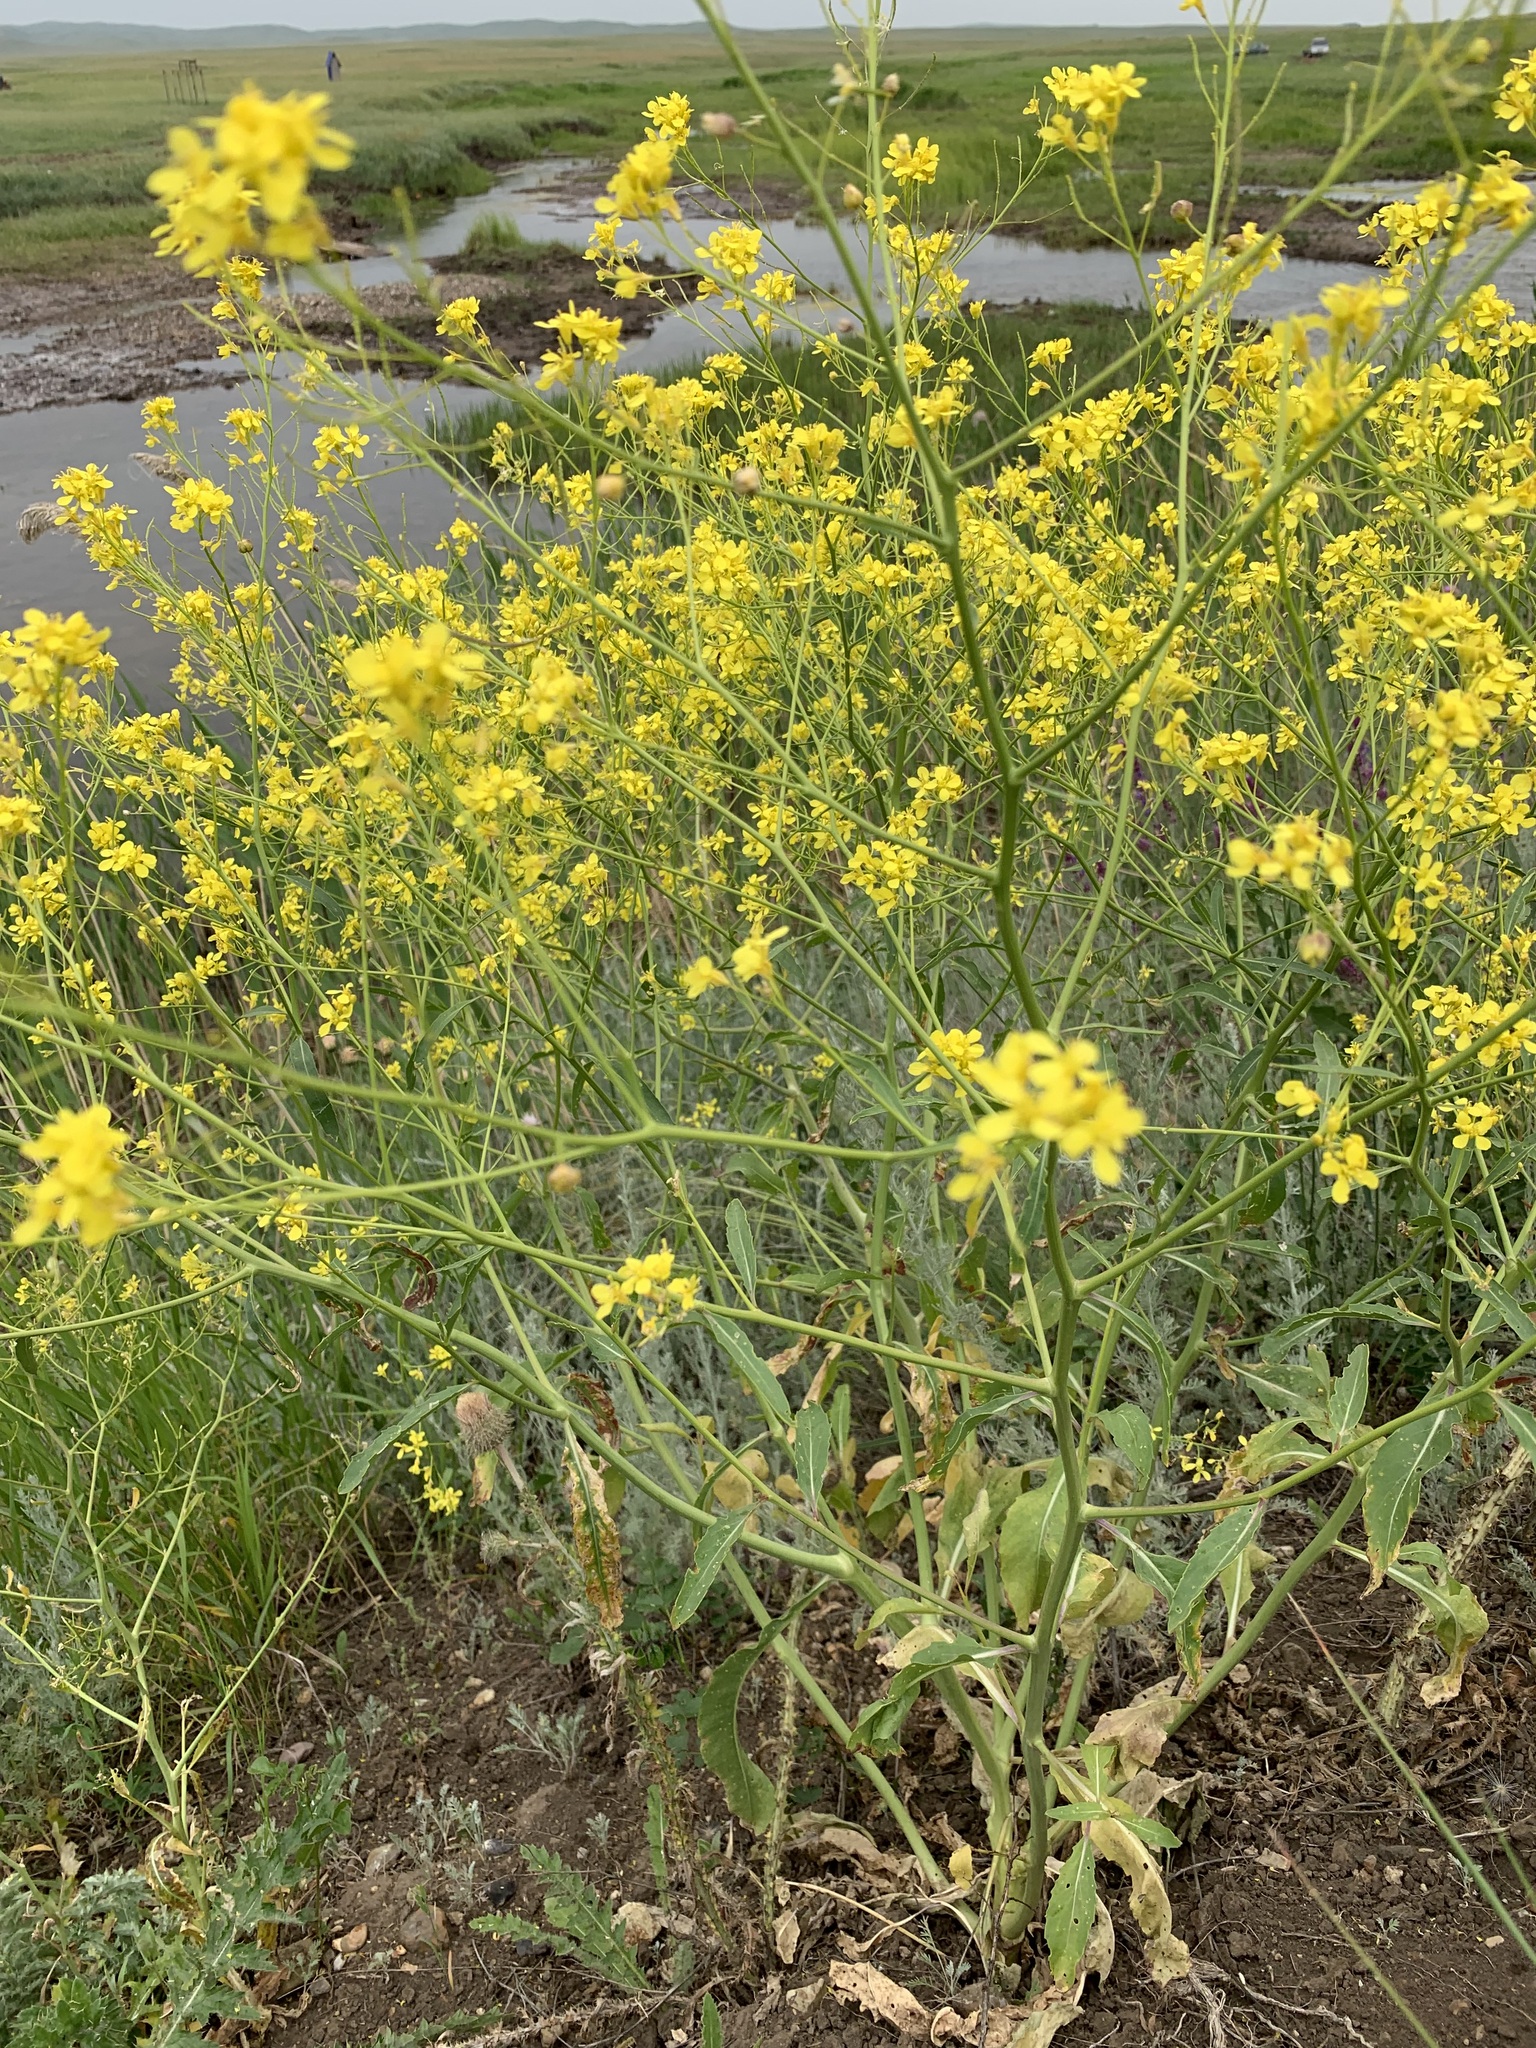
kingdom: Plantae
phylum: Tracheophyta
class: Magnoliopsida
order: Brassicales
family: Brassicaceae
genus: Brassica
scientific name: Brassica elongata
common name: Long-stalked rape
